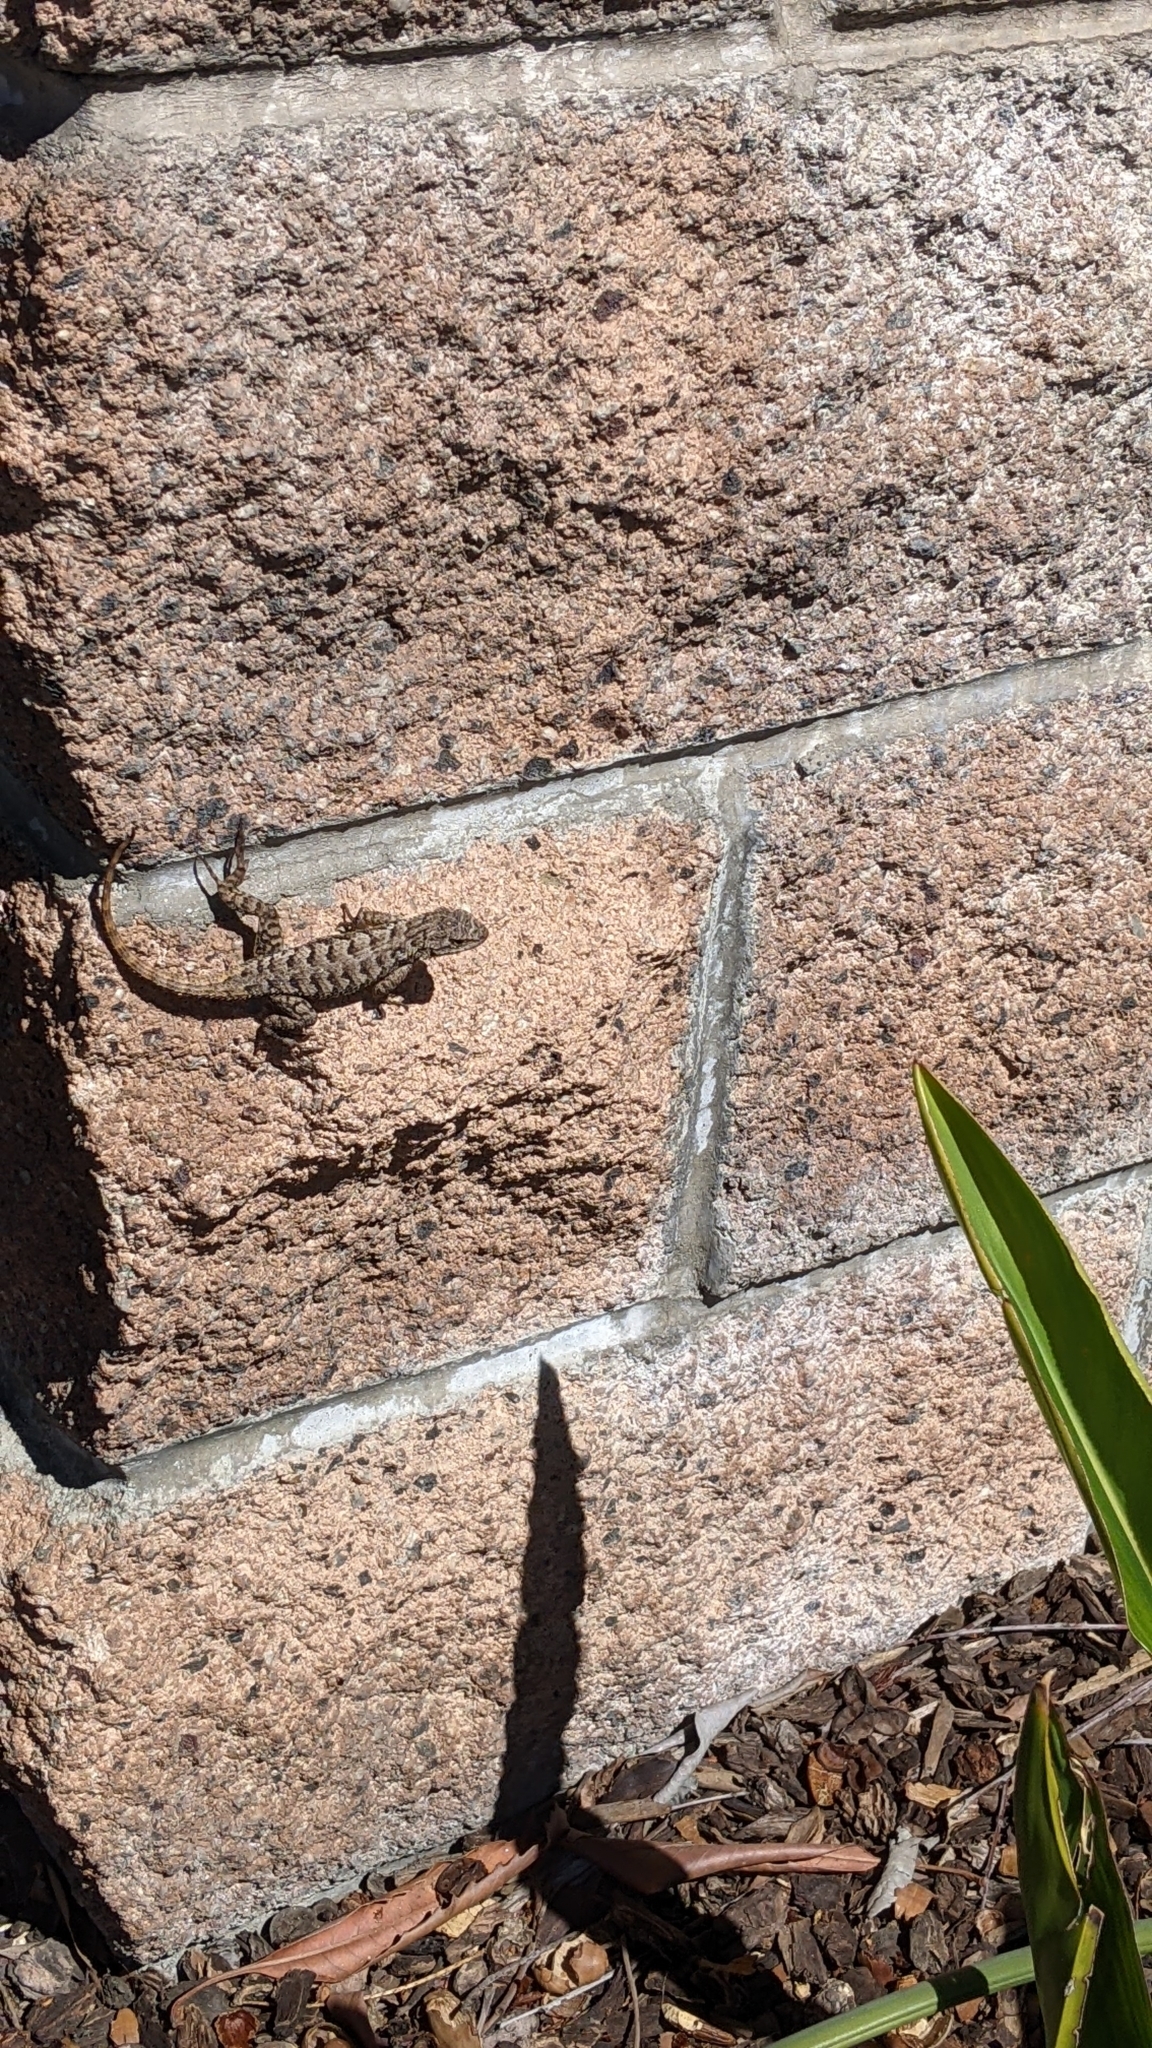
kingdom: Animalia
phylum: Chordata
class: Squamata
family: Phrynosomatidae
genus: Sceloporus
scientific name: Sceloporus occidentalis
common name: Western fence lizard
